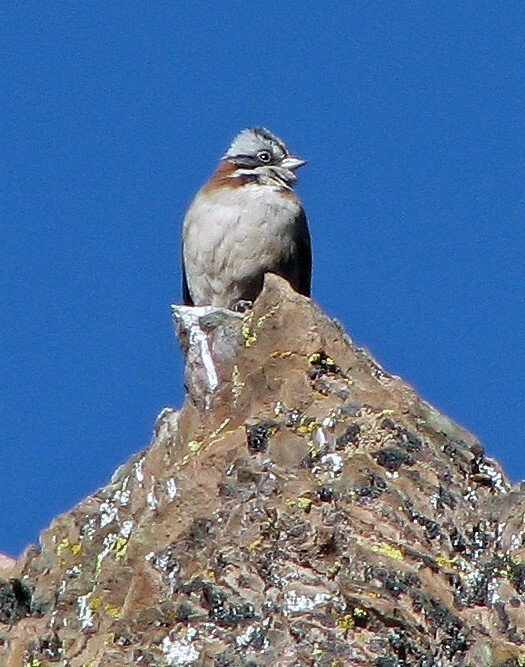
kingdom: Animalia
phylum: Chordata
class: Aves
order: Passeriformes
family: Passerellidae
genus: Zonotrichia
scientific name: Zonotrichia capensis
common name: Rufous-collared sparrow
